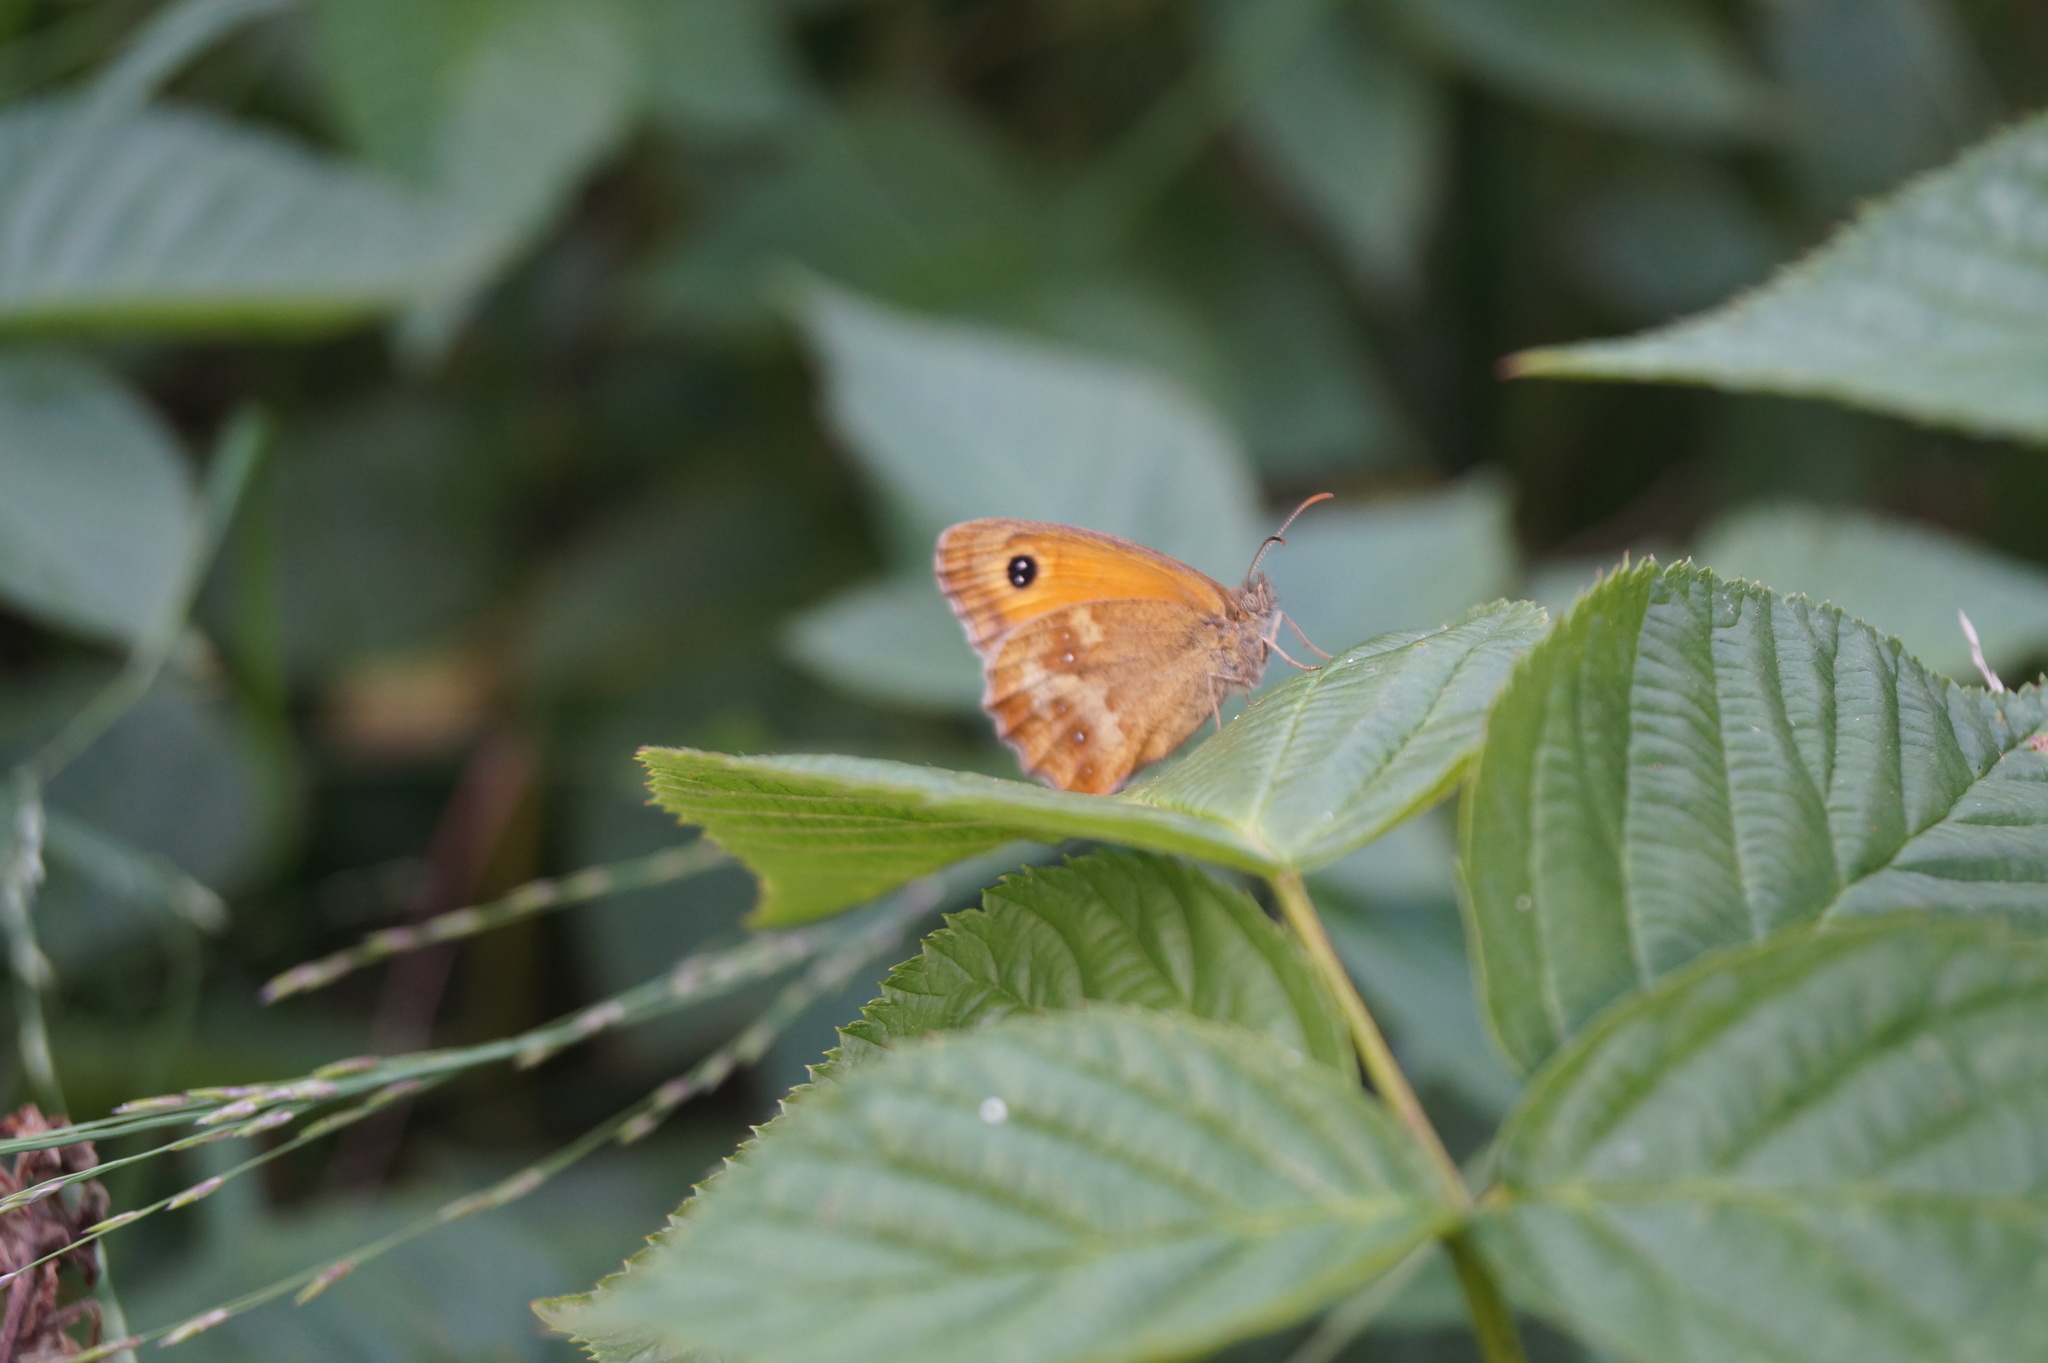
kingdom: Animalia
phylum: Arthropoda
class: Insecta
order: Lepidoptera
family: Nymphalidae
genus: Pyronia
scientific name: Pyronia tithonus
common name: Gatekeeper
